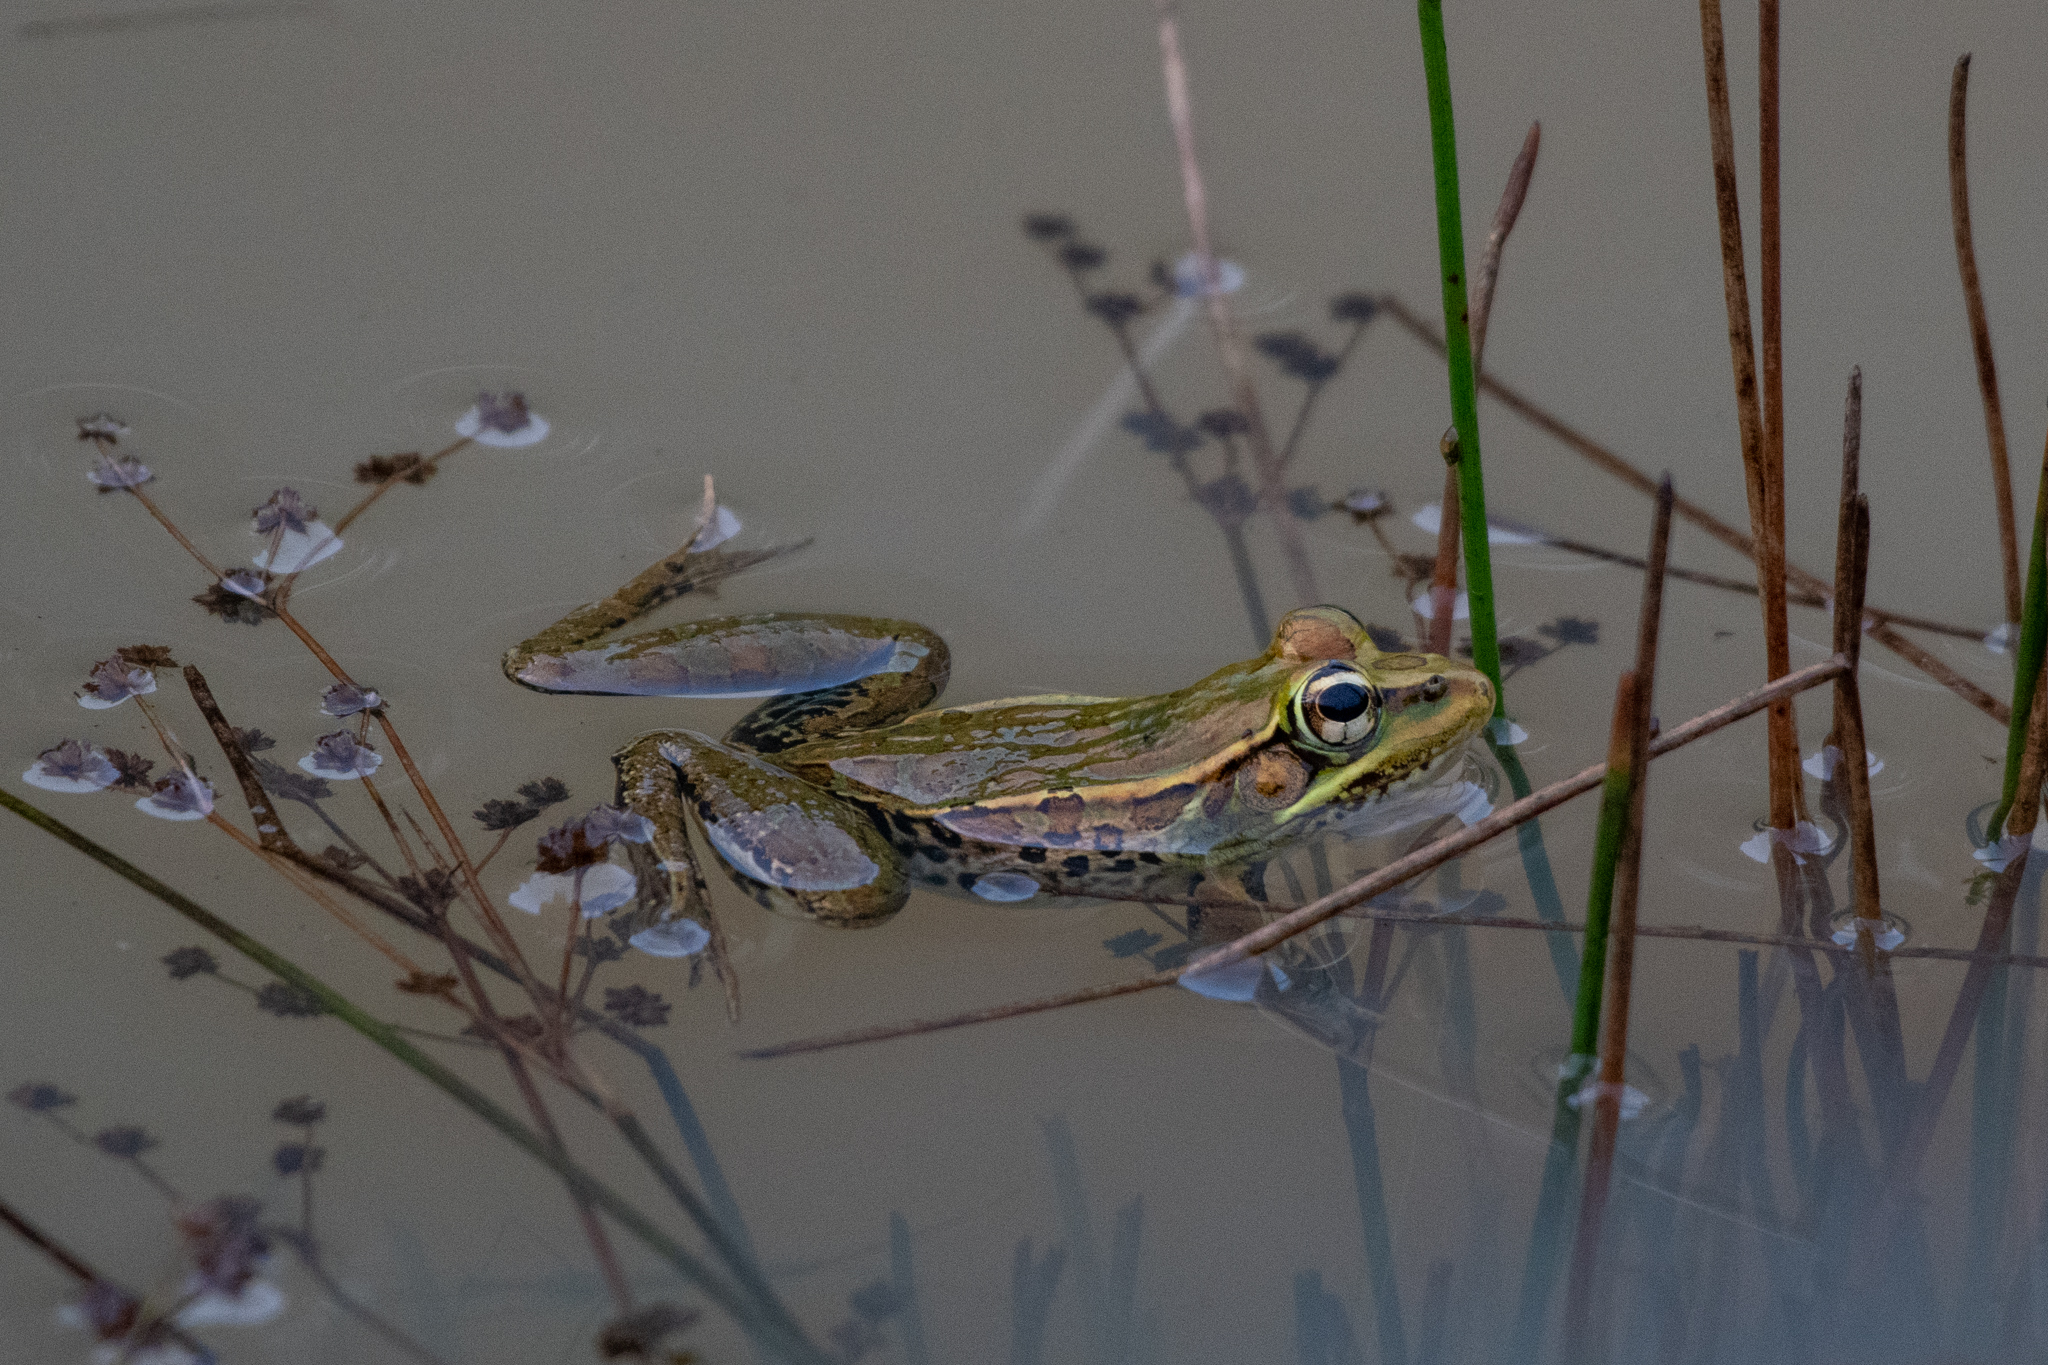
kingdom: Animalia
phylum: Chordata
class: Amphibia
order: Anura
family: Ranidae
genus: Lithobates
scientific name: Lithobates lenca
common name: Lenca leopard frog
